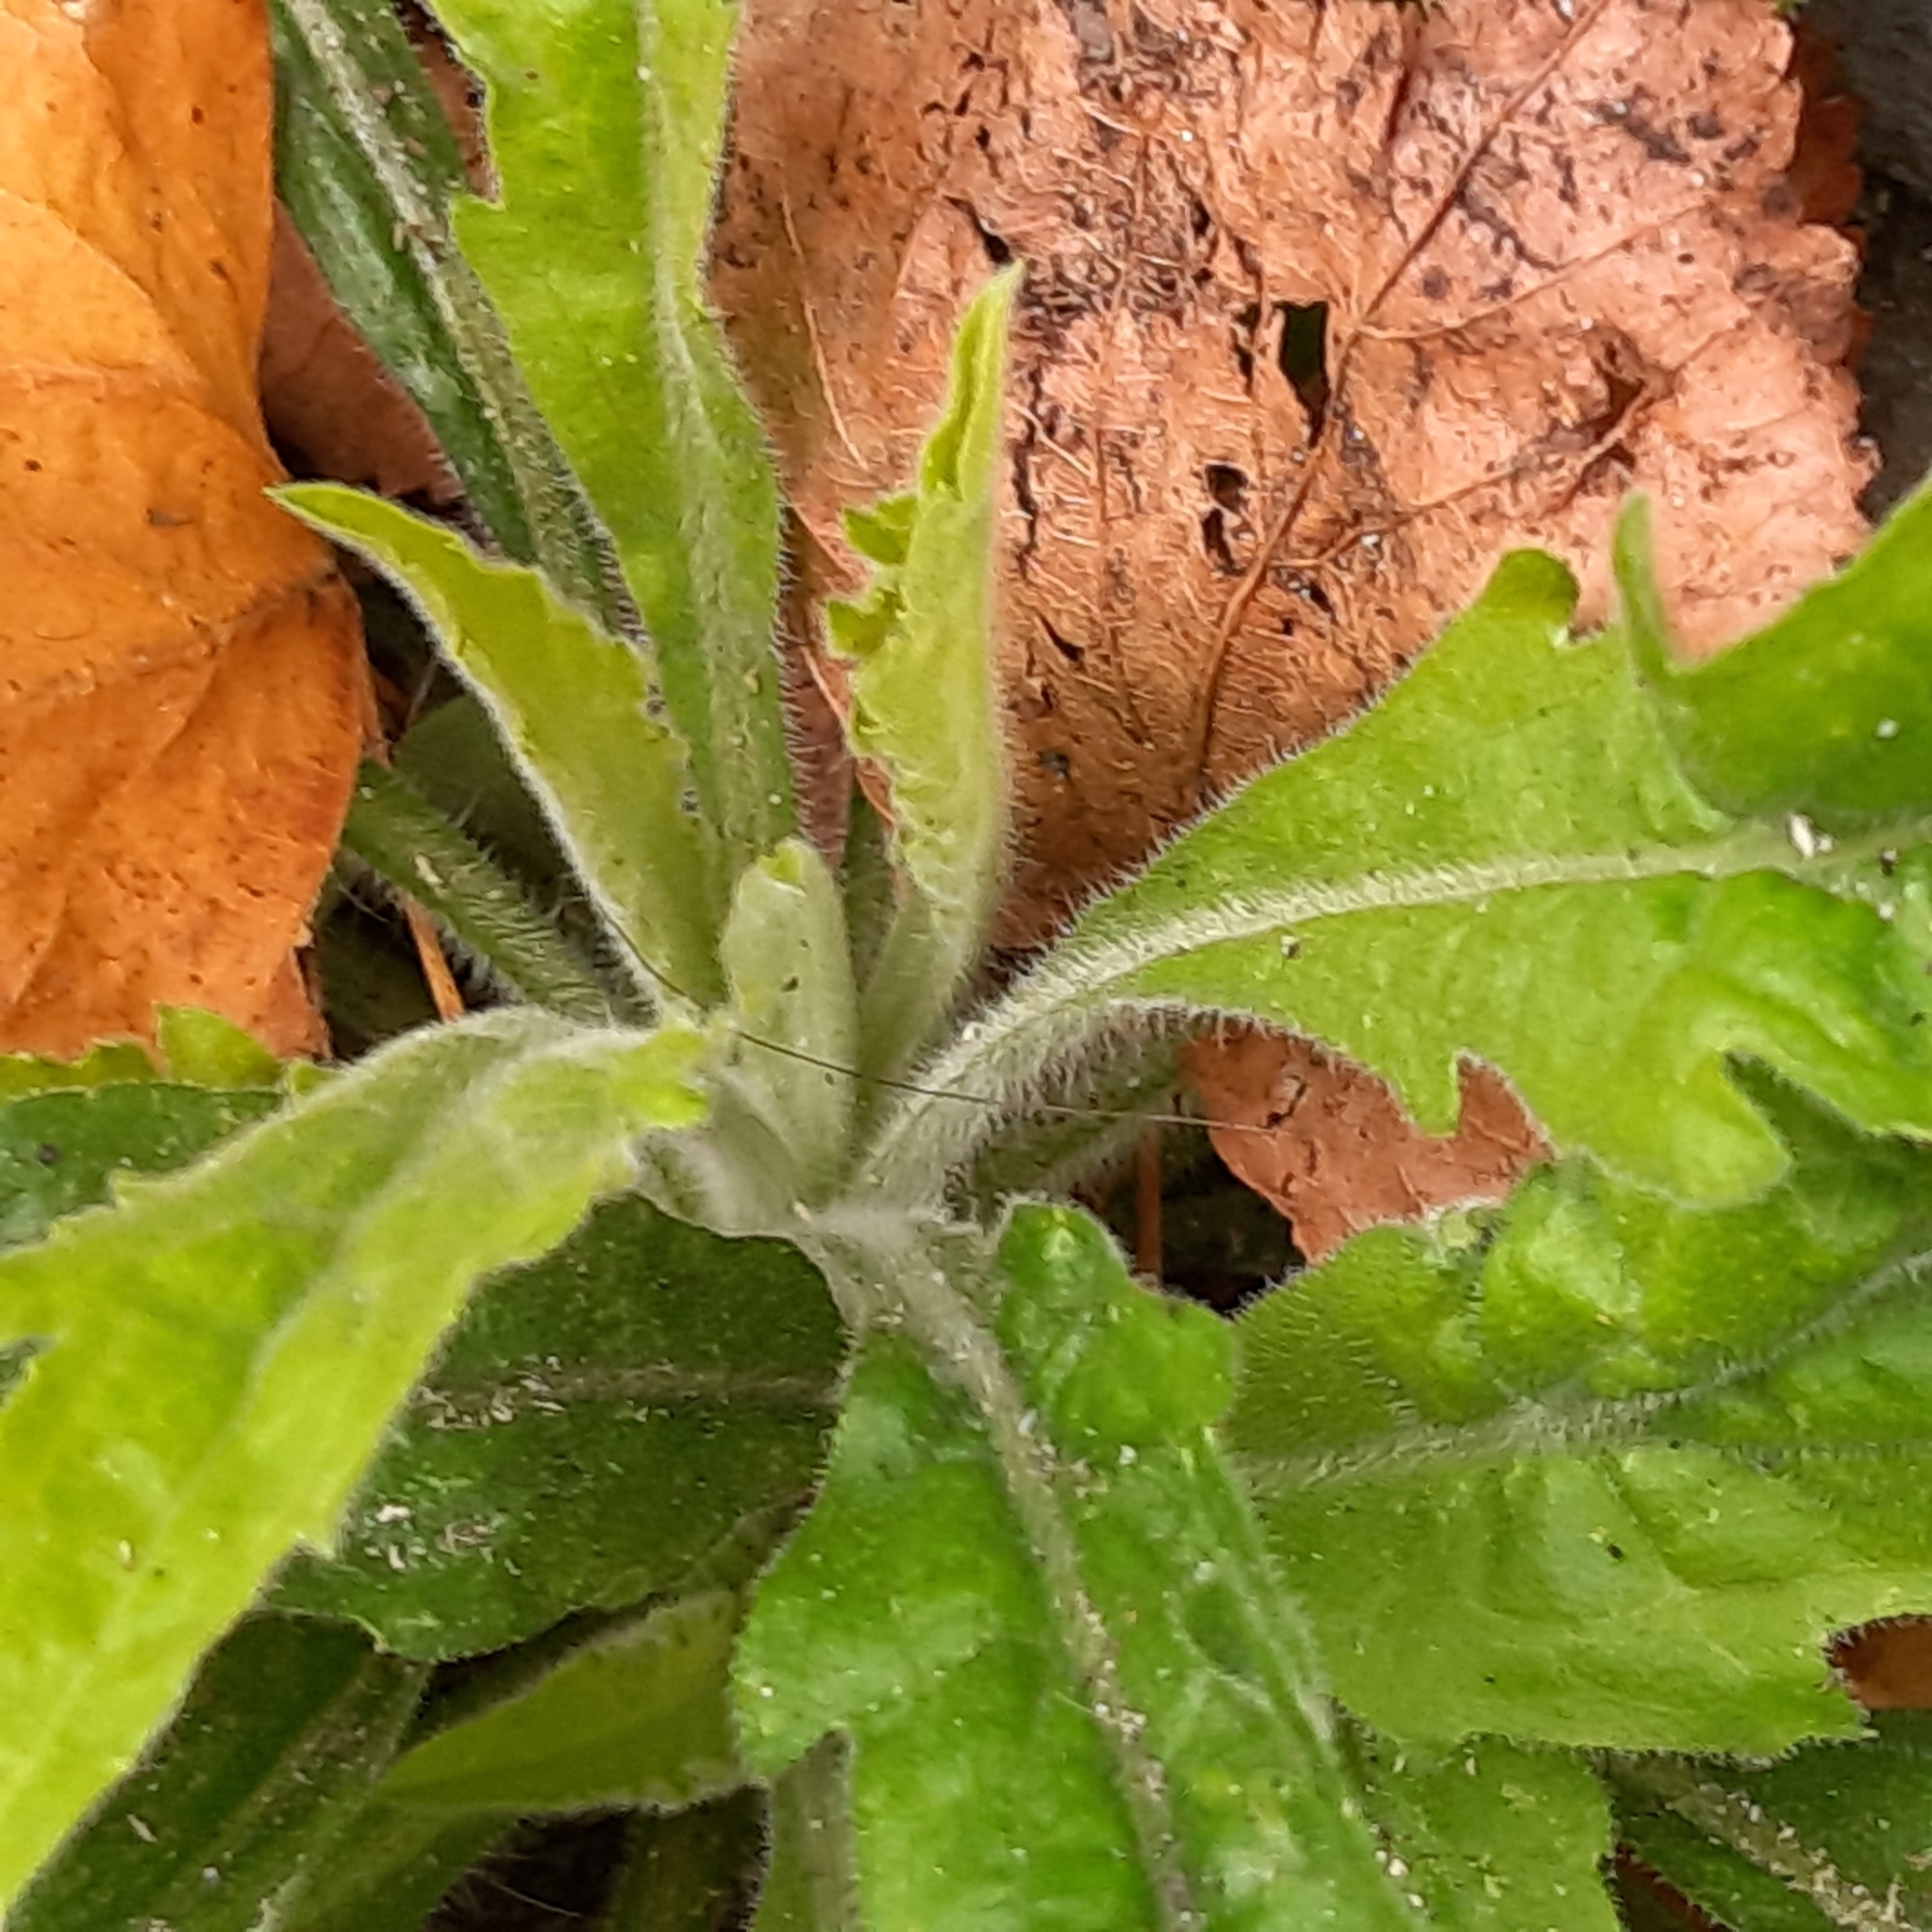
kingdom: Plantae
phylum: Tracheophyta
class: Magnoliopsida
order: Asterales
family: Asteraceae
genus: Erigeron
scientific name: Erigeron sumatrensis
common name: Daisy
